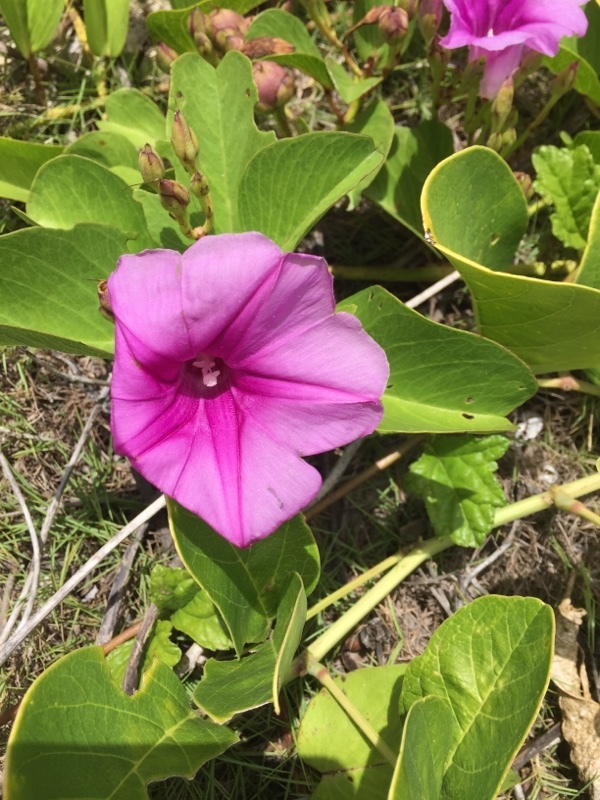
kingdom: Plantae
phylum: Tracheophyta
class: Magnoliopsida
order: Solanales
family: Convolvulaceae
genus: Ipomoea
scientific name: Ipomoea pes-caprae
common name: Beach morning glory
